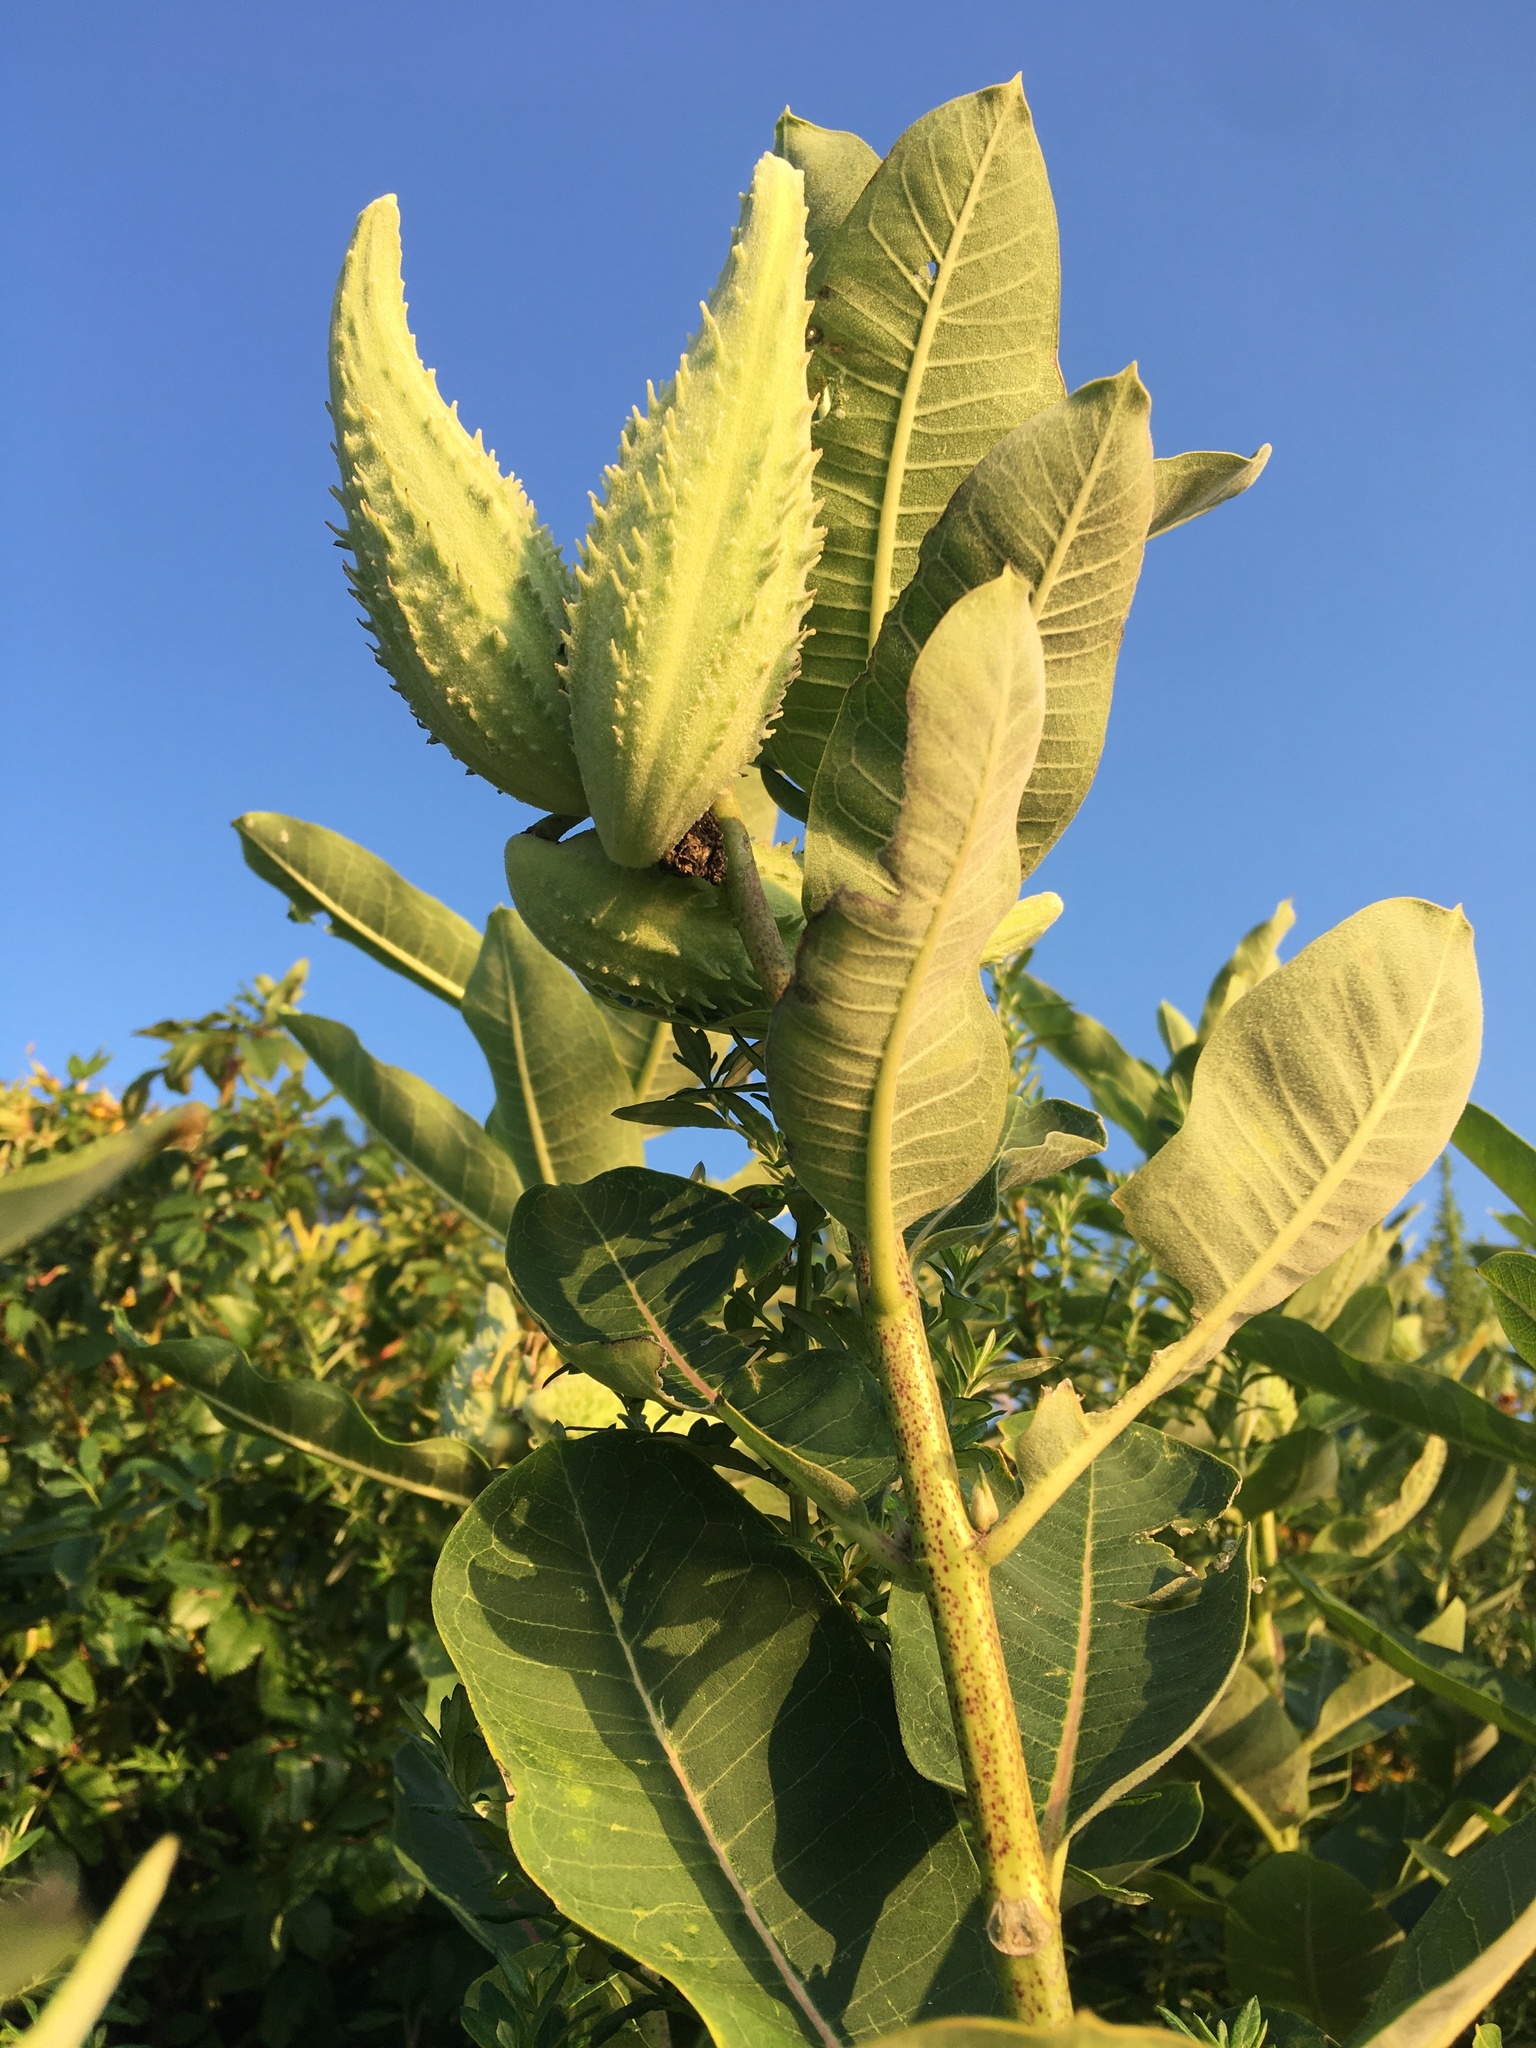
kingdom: Plantae
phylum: Tracheophyta
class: Magnoliopsida
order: Gentianales
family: Apocynaceae
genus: Asclepias
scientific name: Asclepias syriaca
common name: Common milkweed
